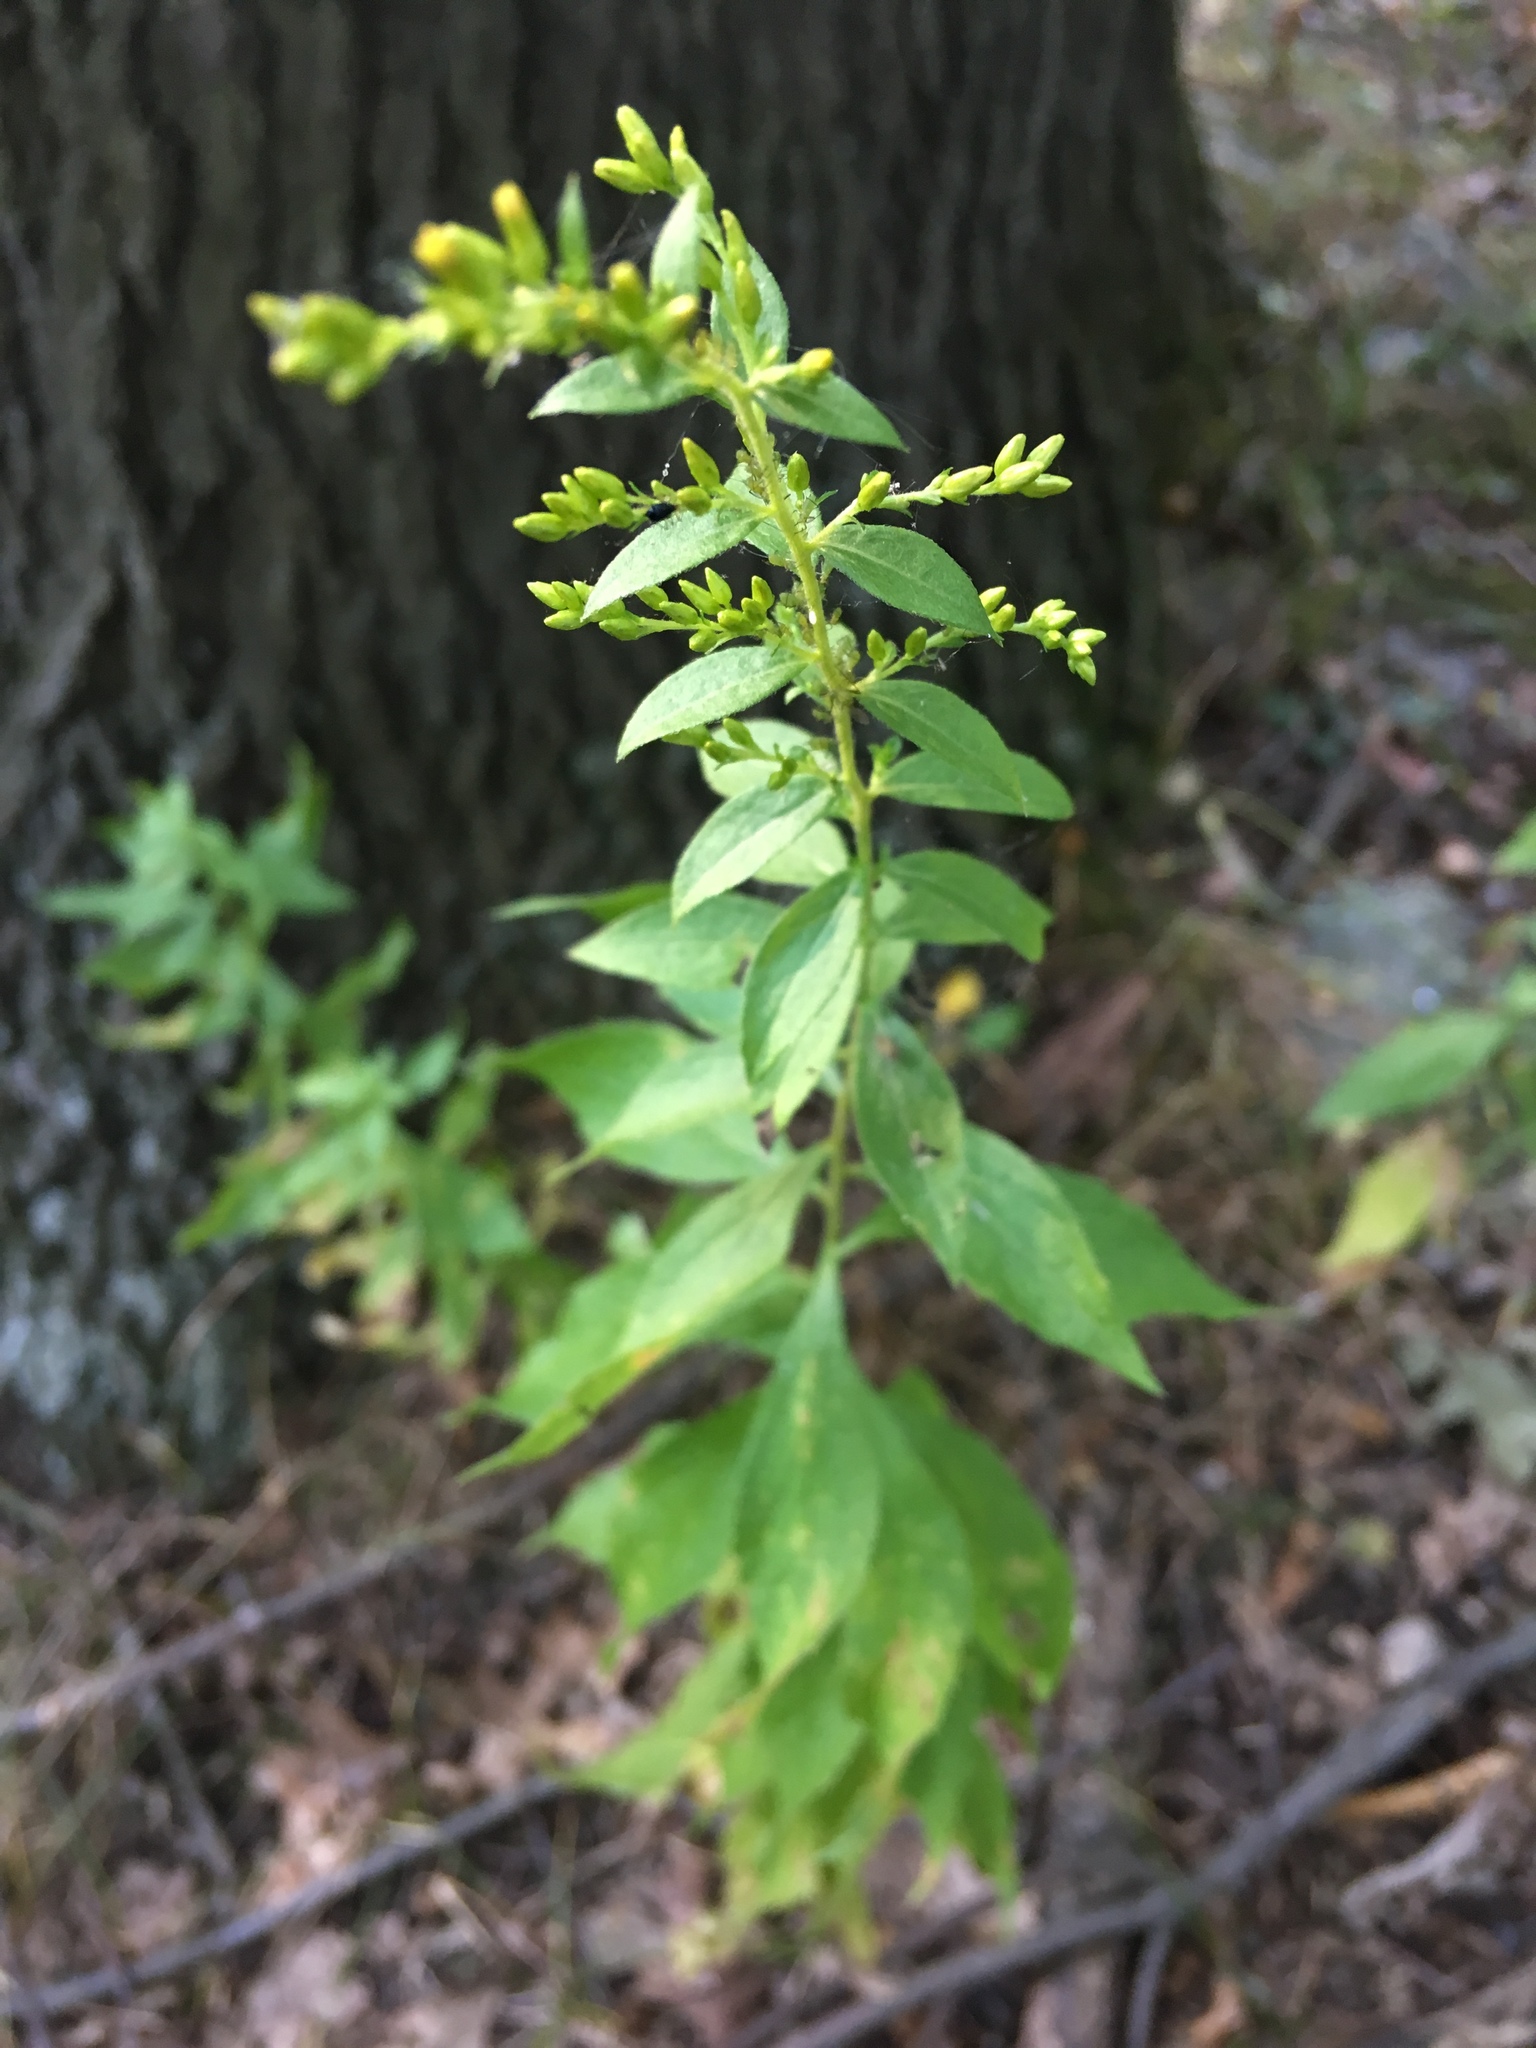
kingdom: Plantae
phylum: Tracheophyta
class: Magnoliopsida
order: Asterales
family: Asteraceae
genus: Solidago
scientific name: Solidago rugosa
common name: Rough-stemmed goldenrod
